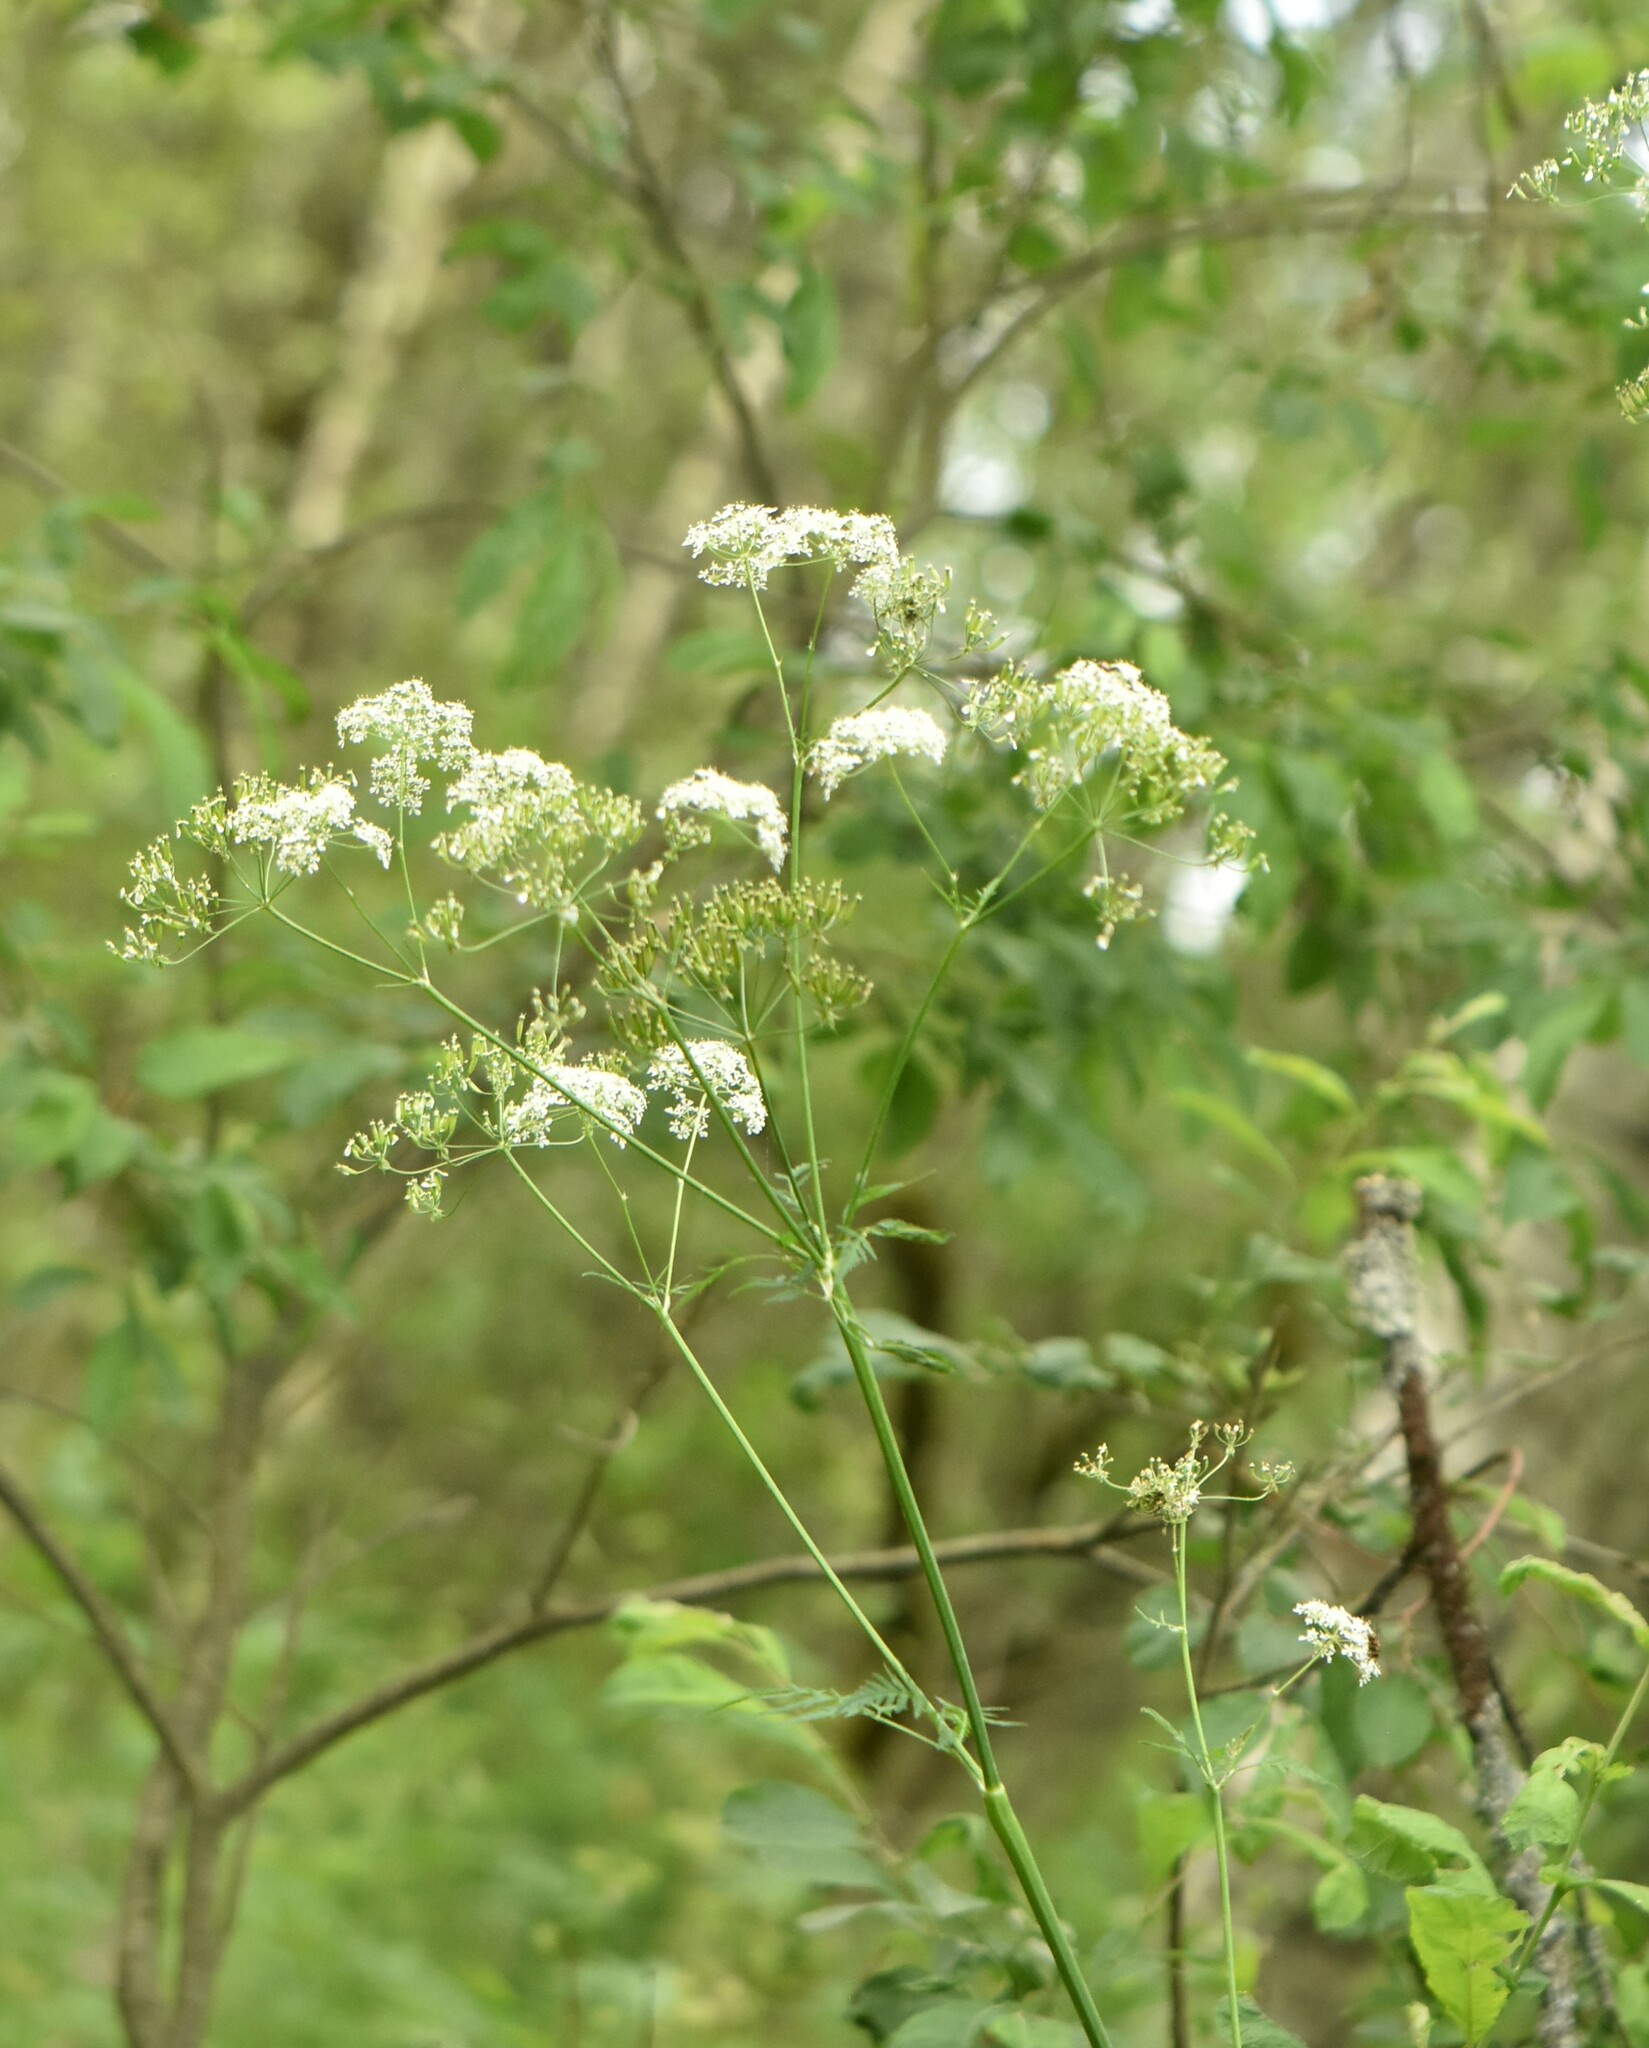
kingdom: Plantae
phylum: Tracheophyta
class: Magnoliopsida
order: Apiales
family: Apiaceae
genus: Anthriscus
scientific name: Anthriscus sylvestris
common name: Cow parsley
